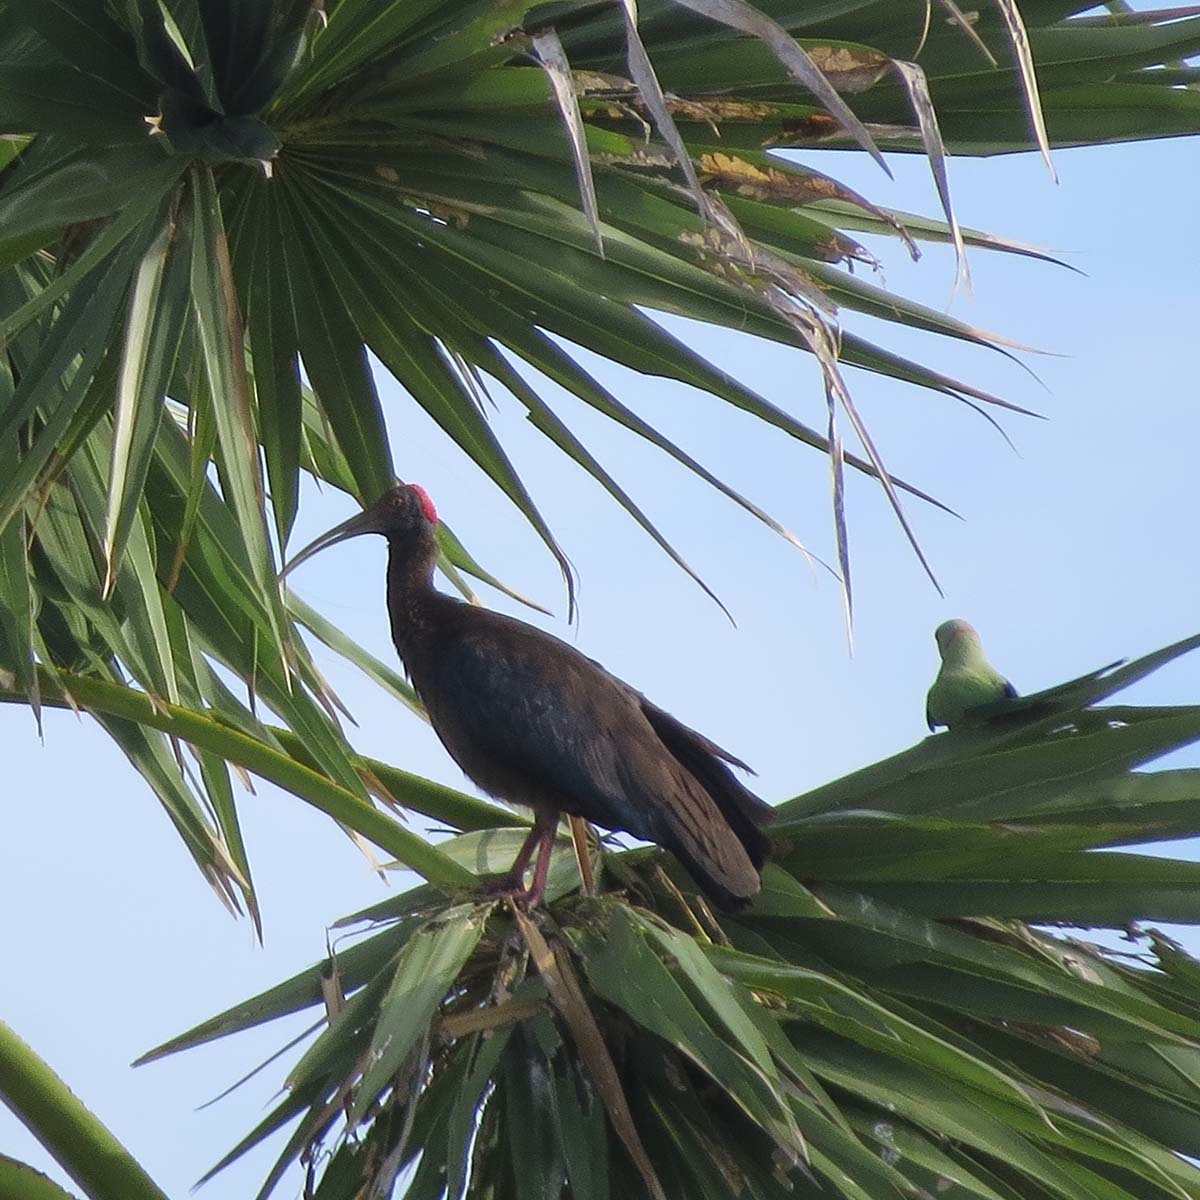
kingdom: Animalia
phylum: Chordata
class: Aves
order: Pelecaniformes
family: Threskiornithidae
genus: Pseudibis
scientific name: Pseudibis papillosa
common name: Red-naped ibis
